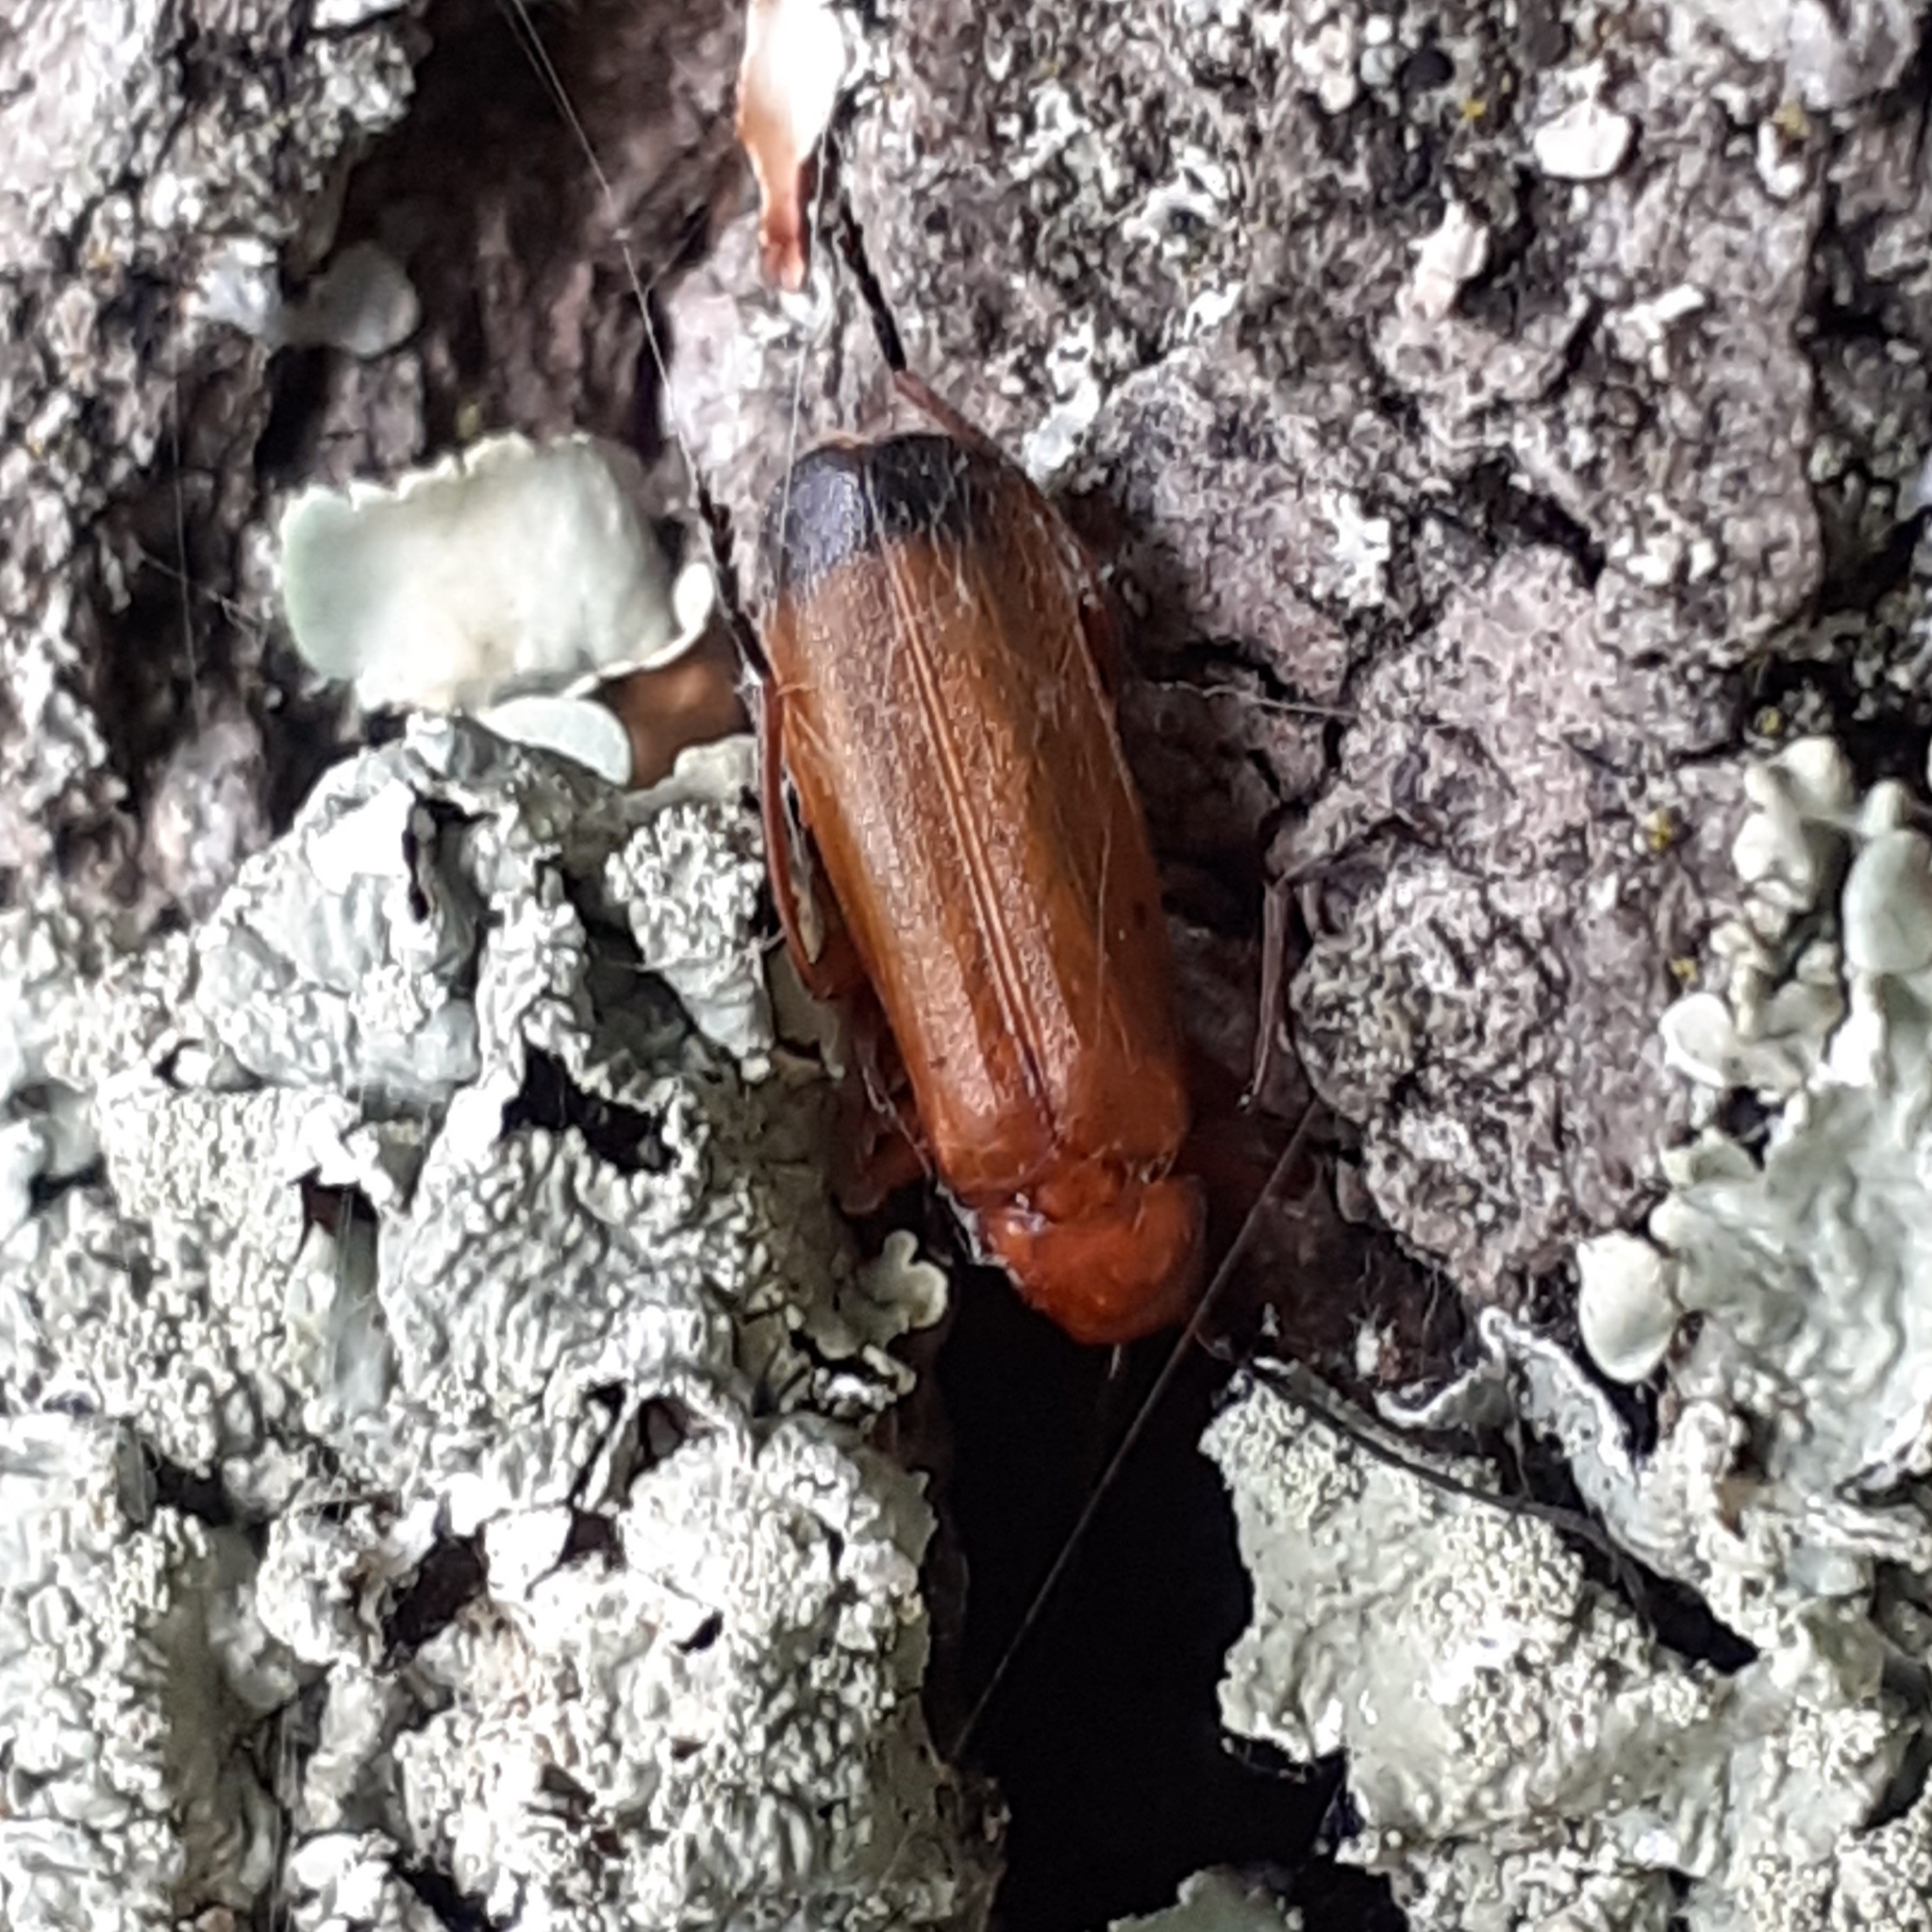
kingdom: Animalia
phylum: Arthropoda
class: Insecta
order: Coleoptera
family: Cantharidae
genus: Rhagonycha
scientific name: Rhagonycha fulva
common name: Common red soldier beetle
